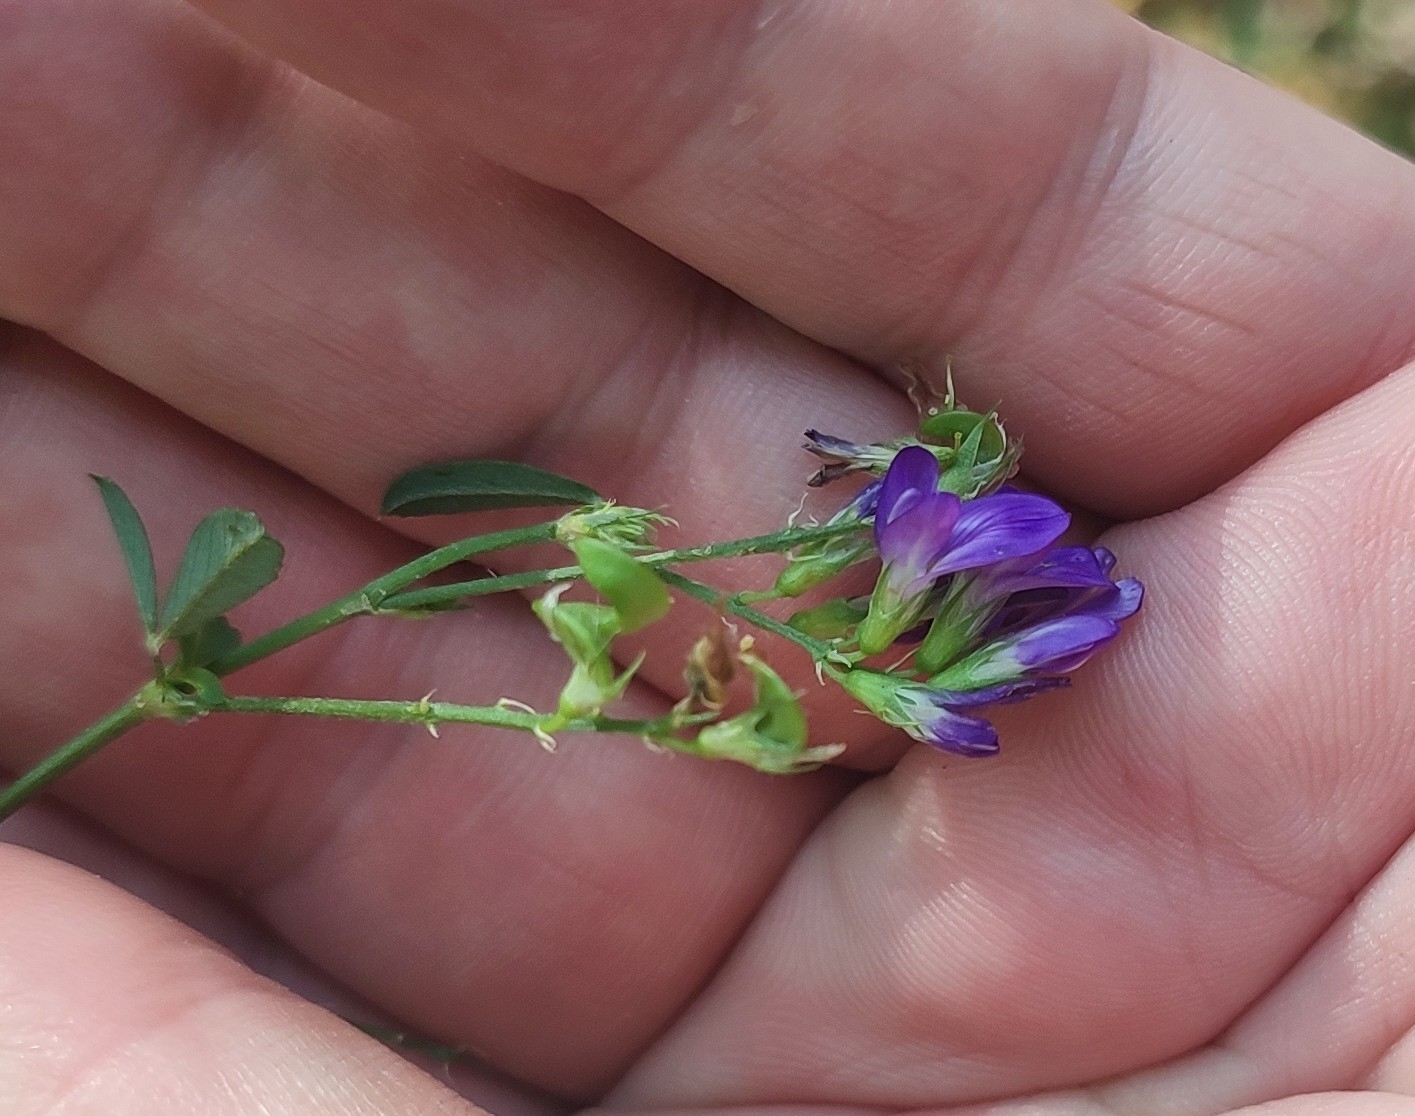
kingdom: Plantae
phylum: Tracheophyta
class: Magnoliopsida
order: Fabales
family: Fabaceae
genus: Medicago
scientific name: Medicago sativa
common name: Alfalfa
